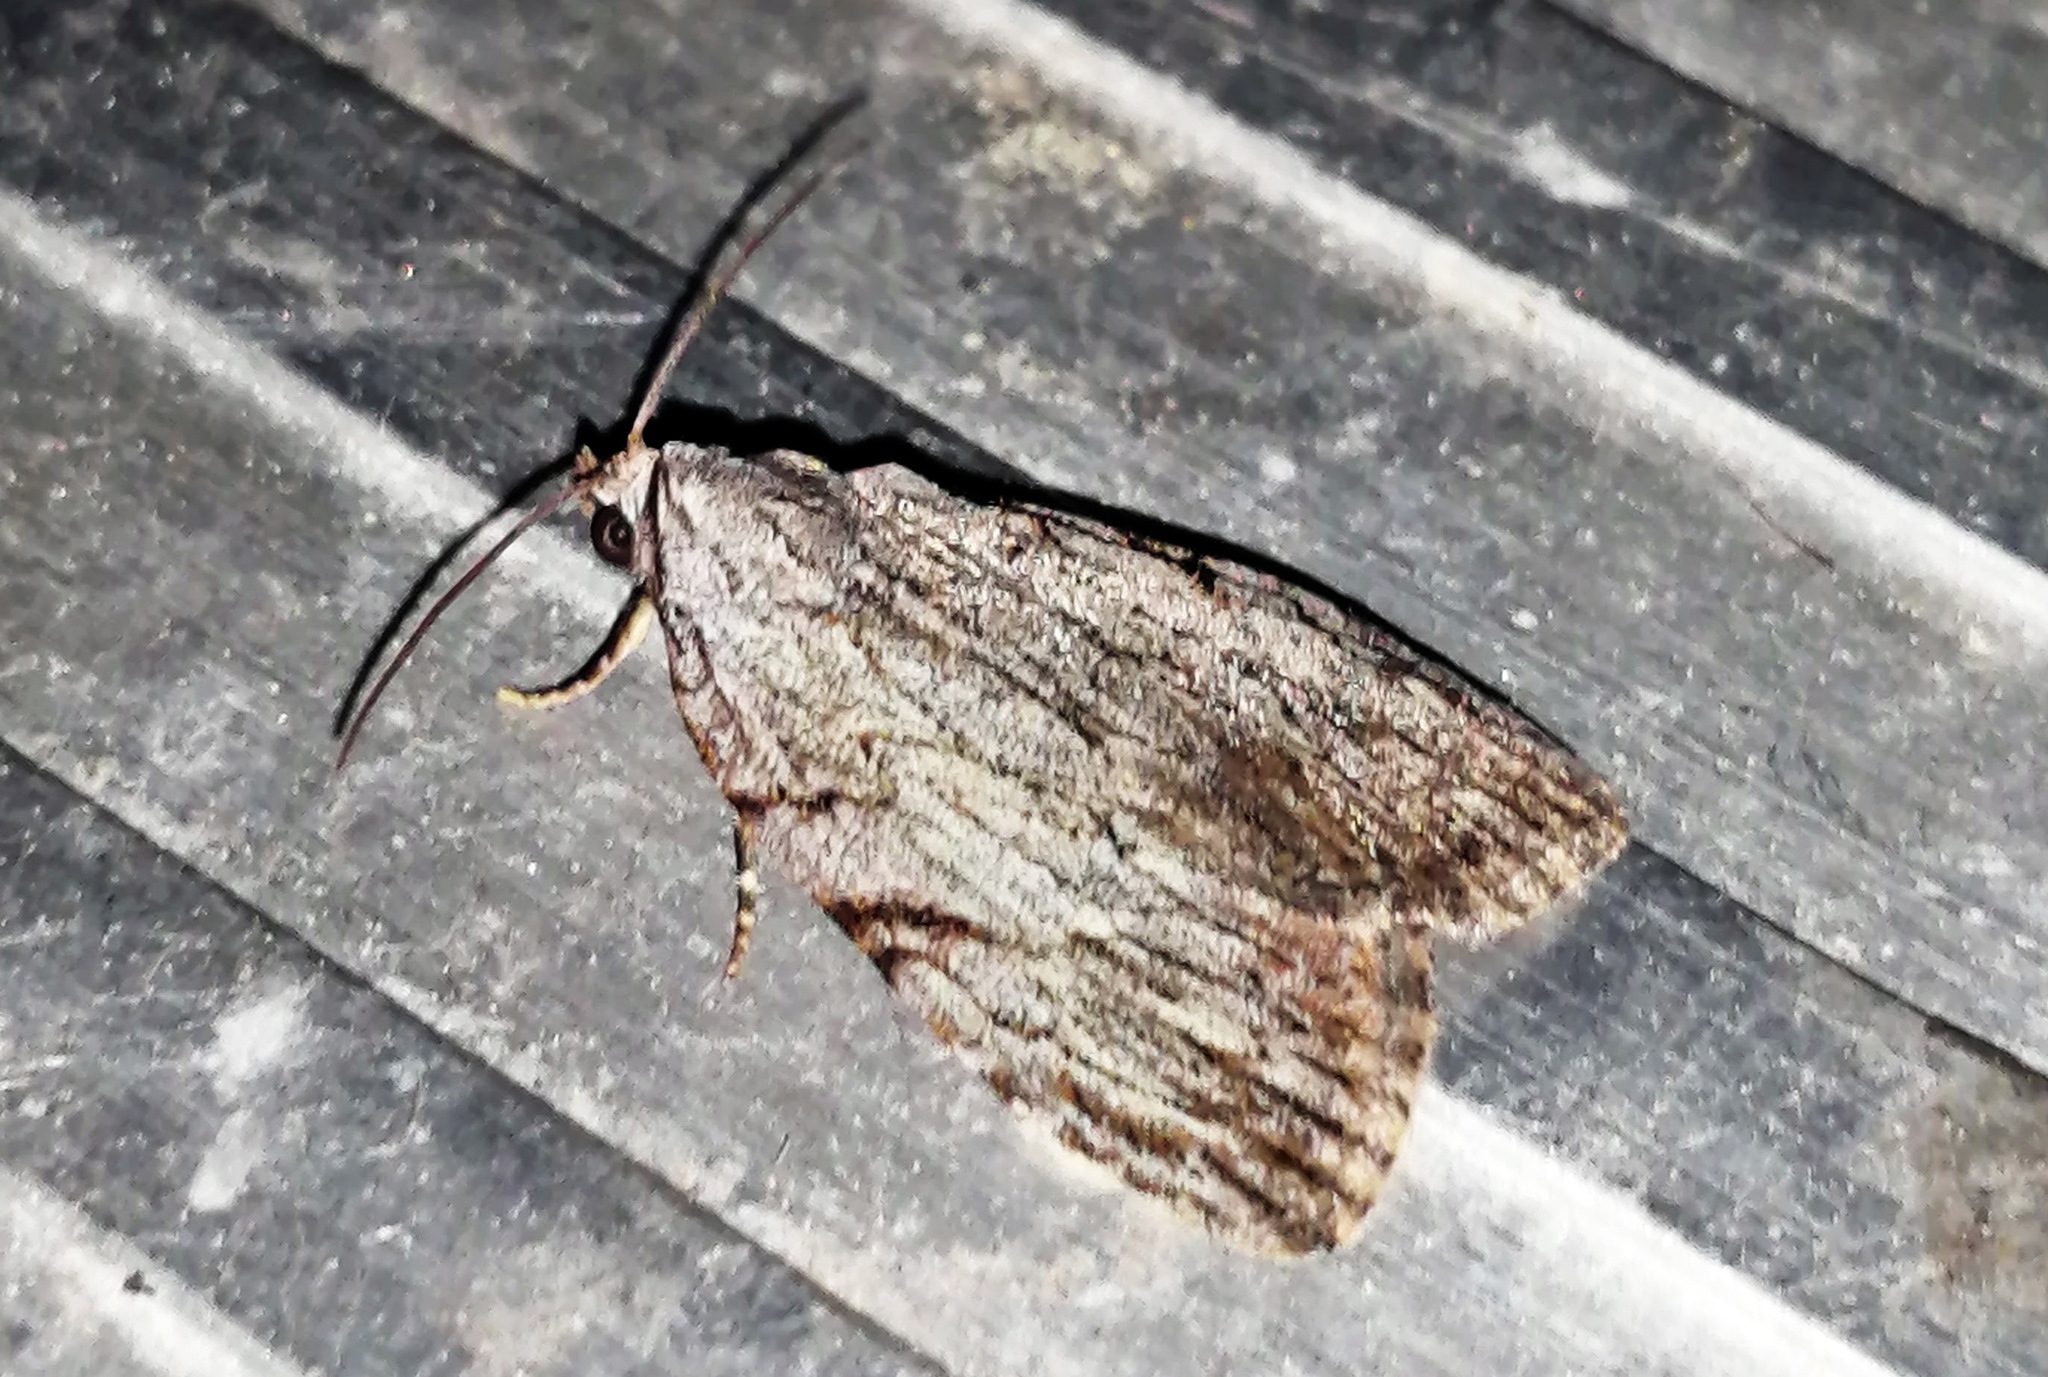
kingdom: Animalia
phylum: Arthropoda
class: Insecta
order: Lepidoptera
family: Noctuidae
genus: Balsa
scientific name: Balsa tristrigella
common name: Three-lined balsa moth
